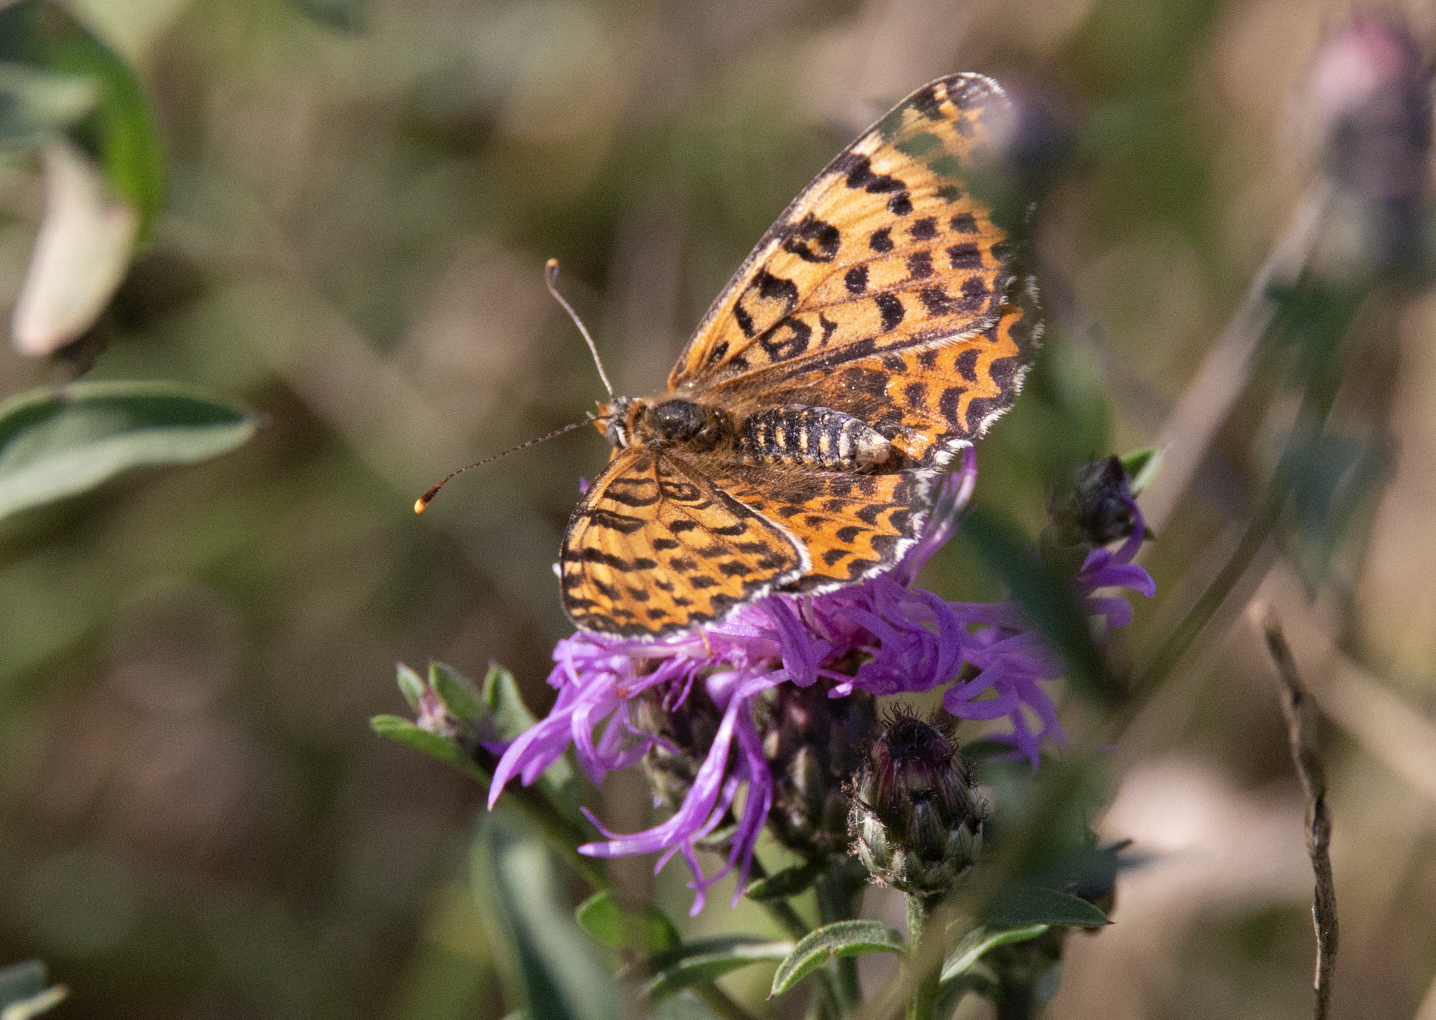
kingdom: Animalia
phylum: Arthropoda
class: Insecta
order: Lepidoptera
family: Nymphalidae
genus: Melitaea
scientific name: Melitaea didyma
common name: Spotted fritillary
